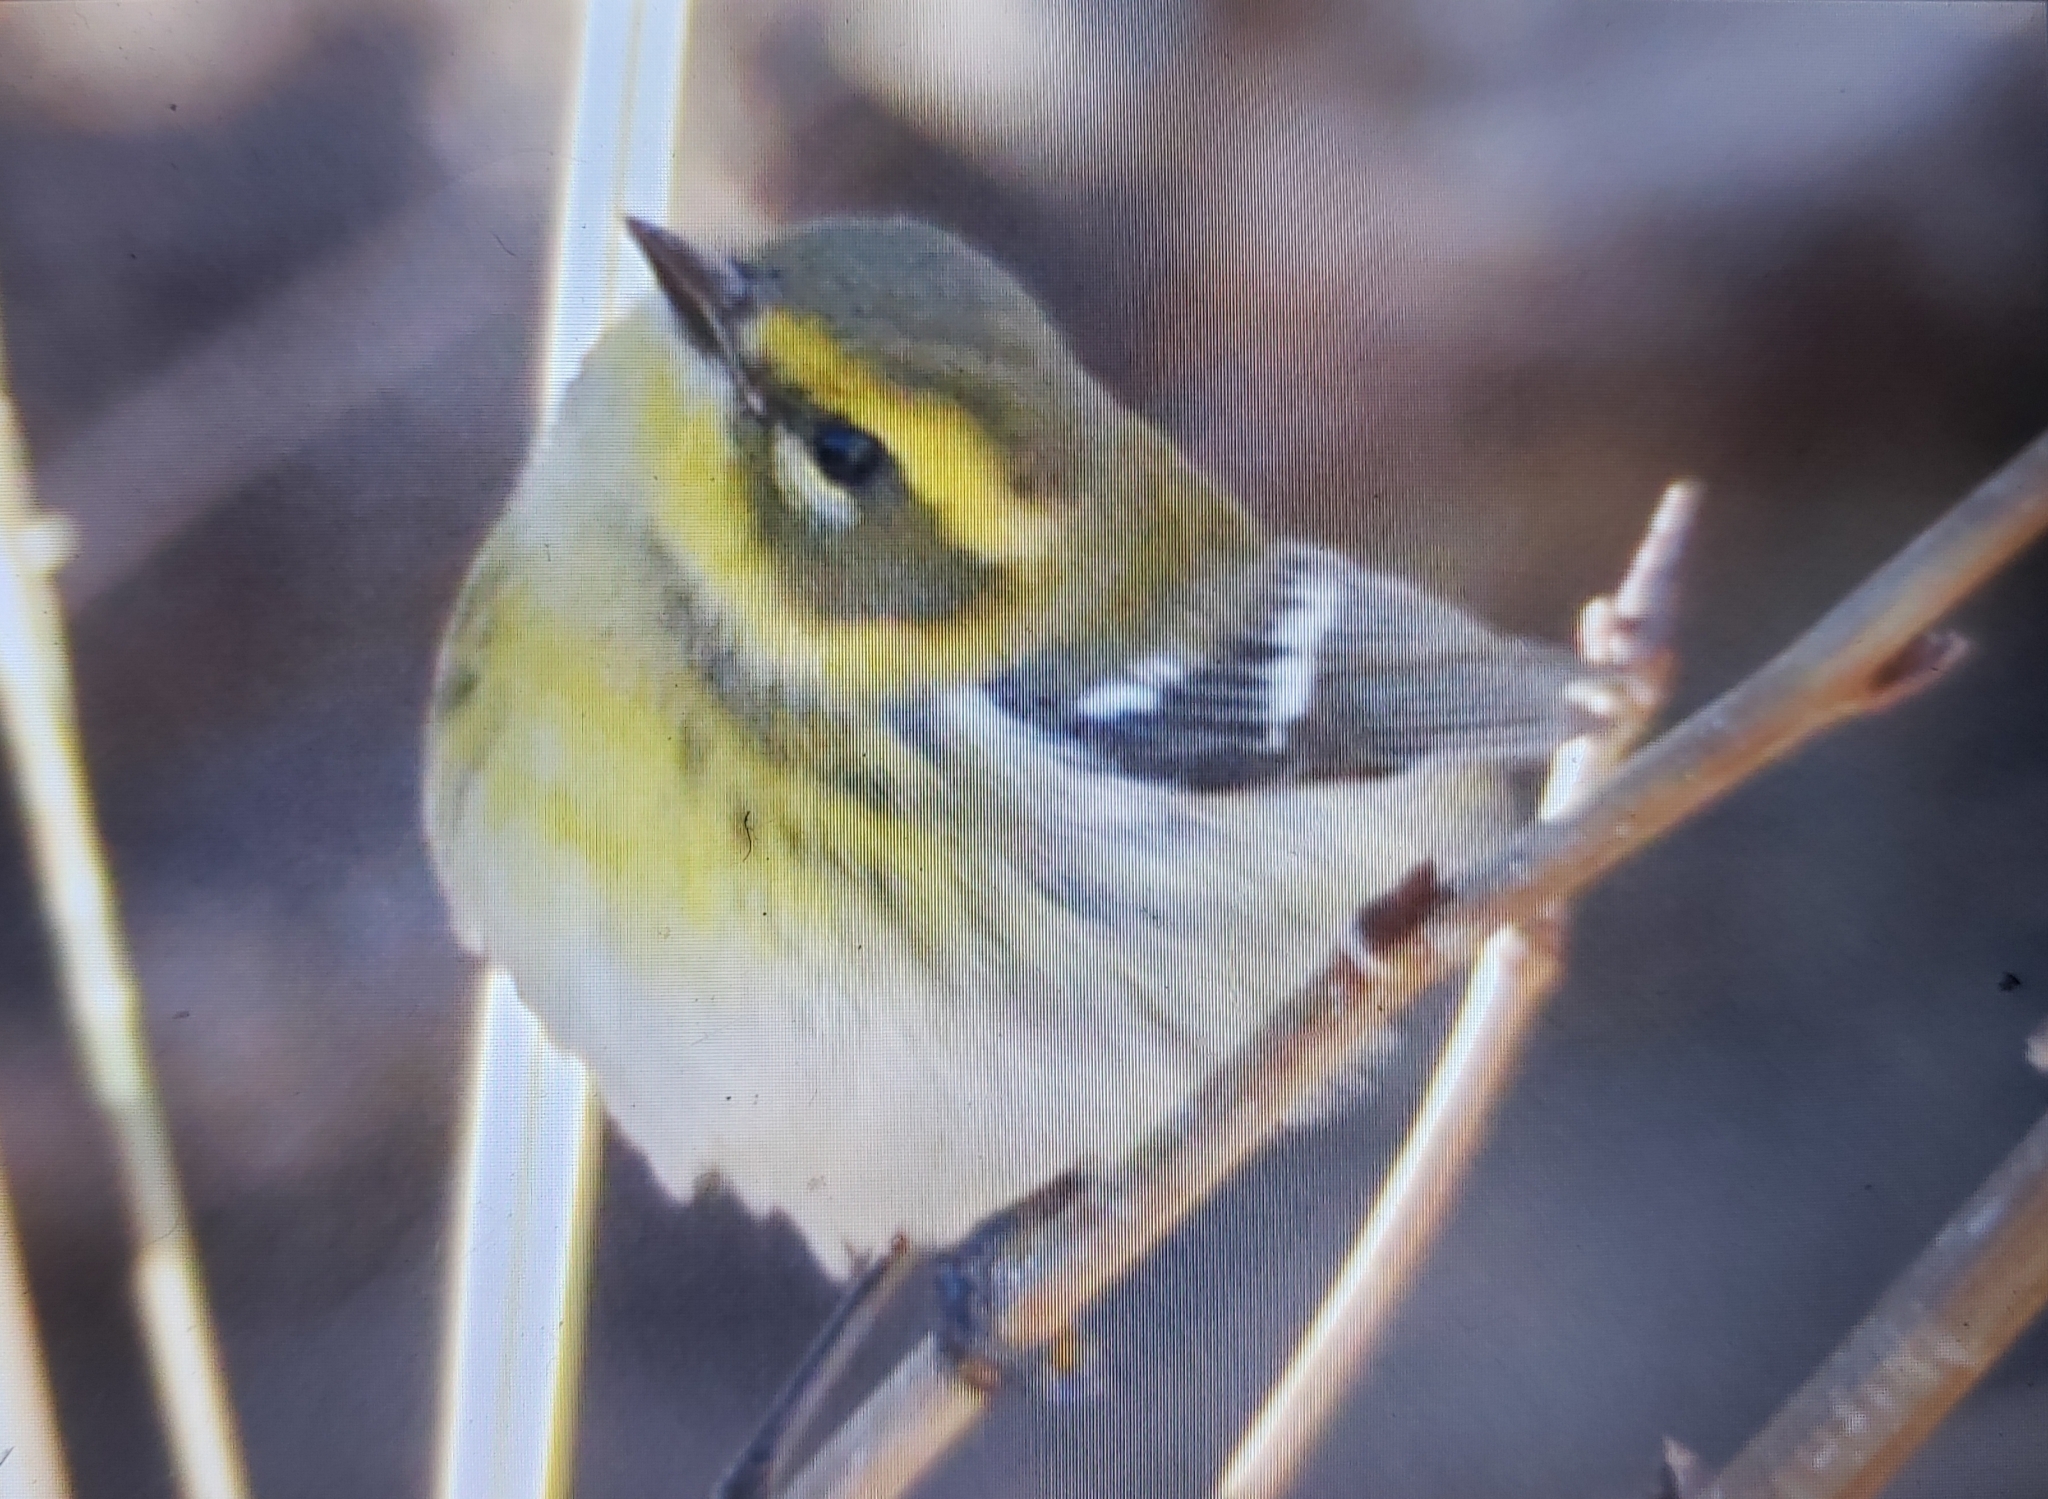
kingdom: Animalia
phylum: Chordata
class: Aves
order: Passeriformes
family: Parulidae
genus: Setophaga
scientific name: Setophaga townsendi
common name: Townsend's warbler
